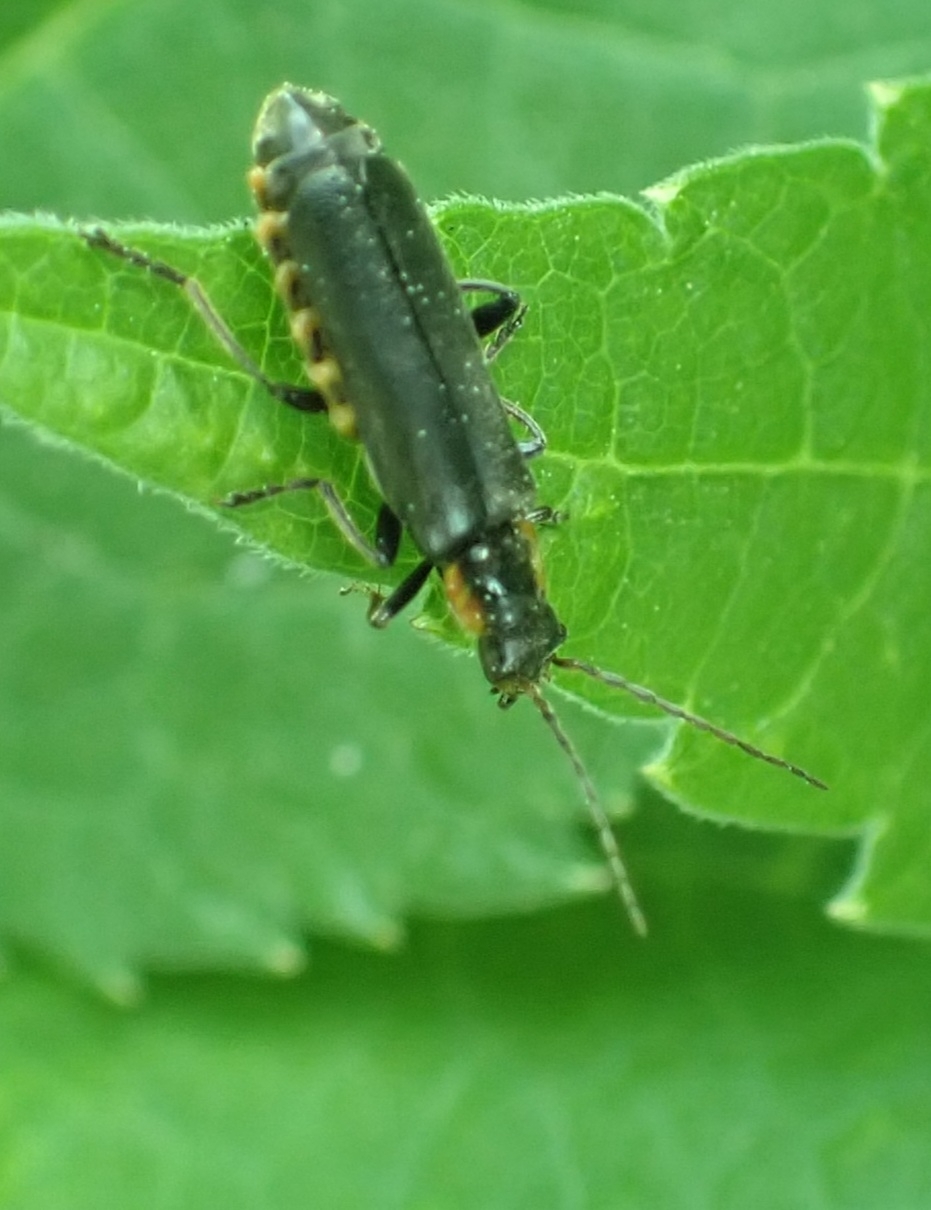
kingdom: Animalia
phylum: Arthropoda
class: Insecta
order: Coleoptera
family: Cantharidae
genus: Cantharis
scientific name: Cantharis obscura
